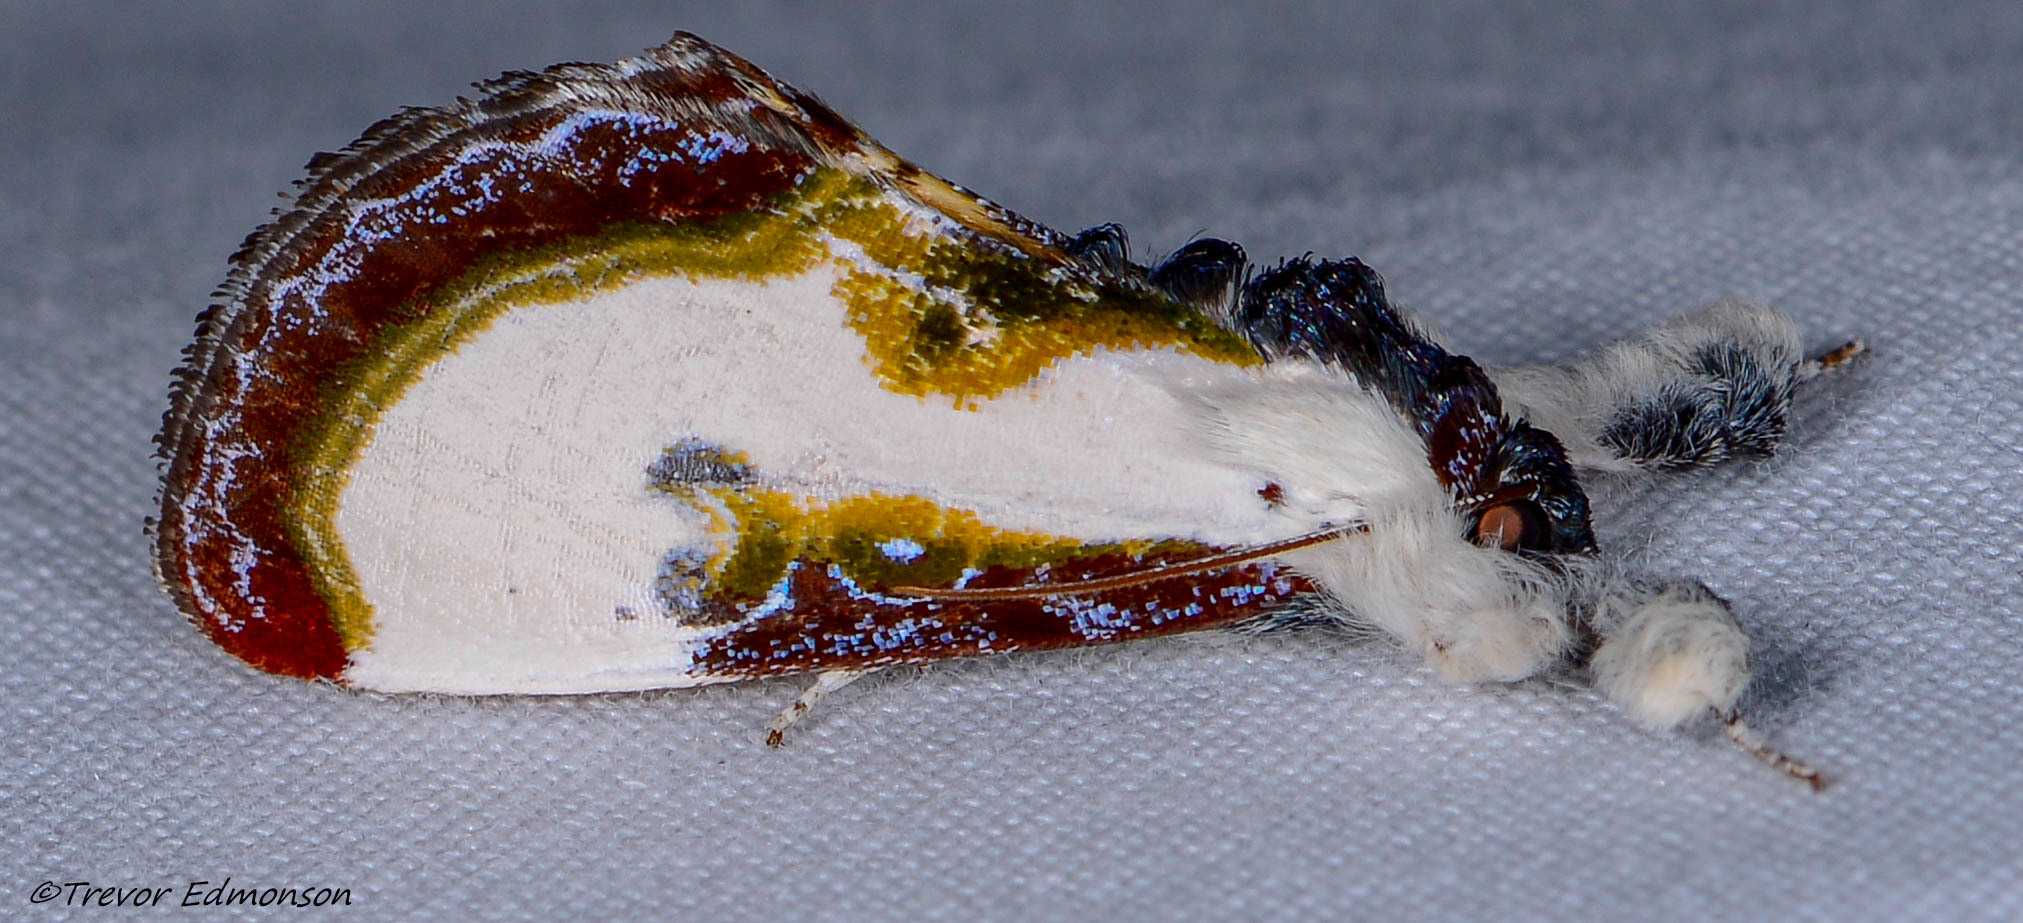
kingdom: Animalia
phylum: Arthropoda
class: Insecta
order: Lepidoptera
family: Noctuidae
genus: Eudryas
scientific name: Eudryas grata
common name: Beautiful wood-nymph
